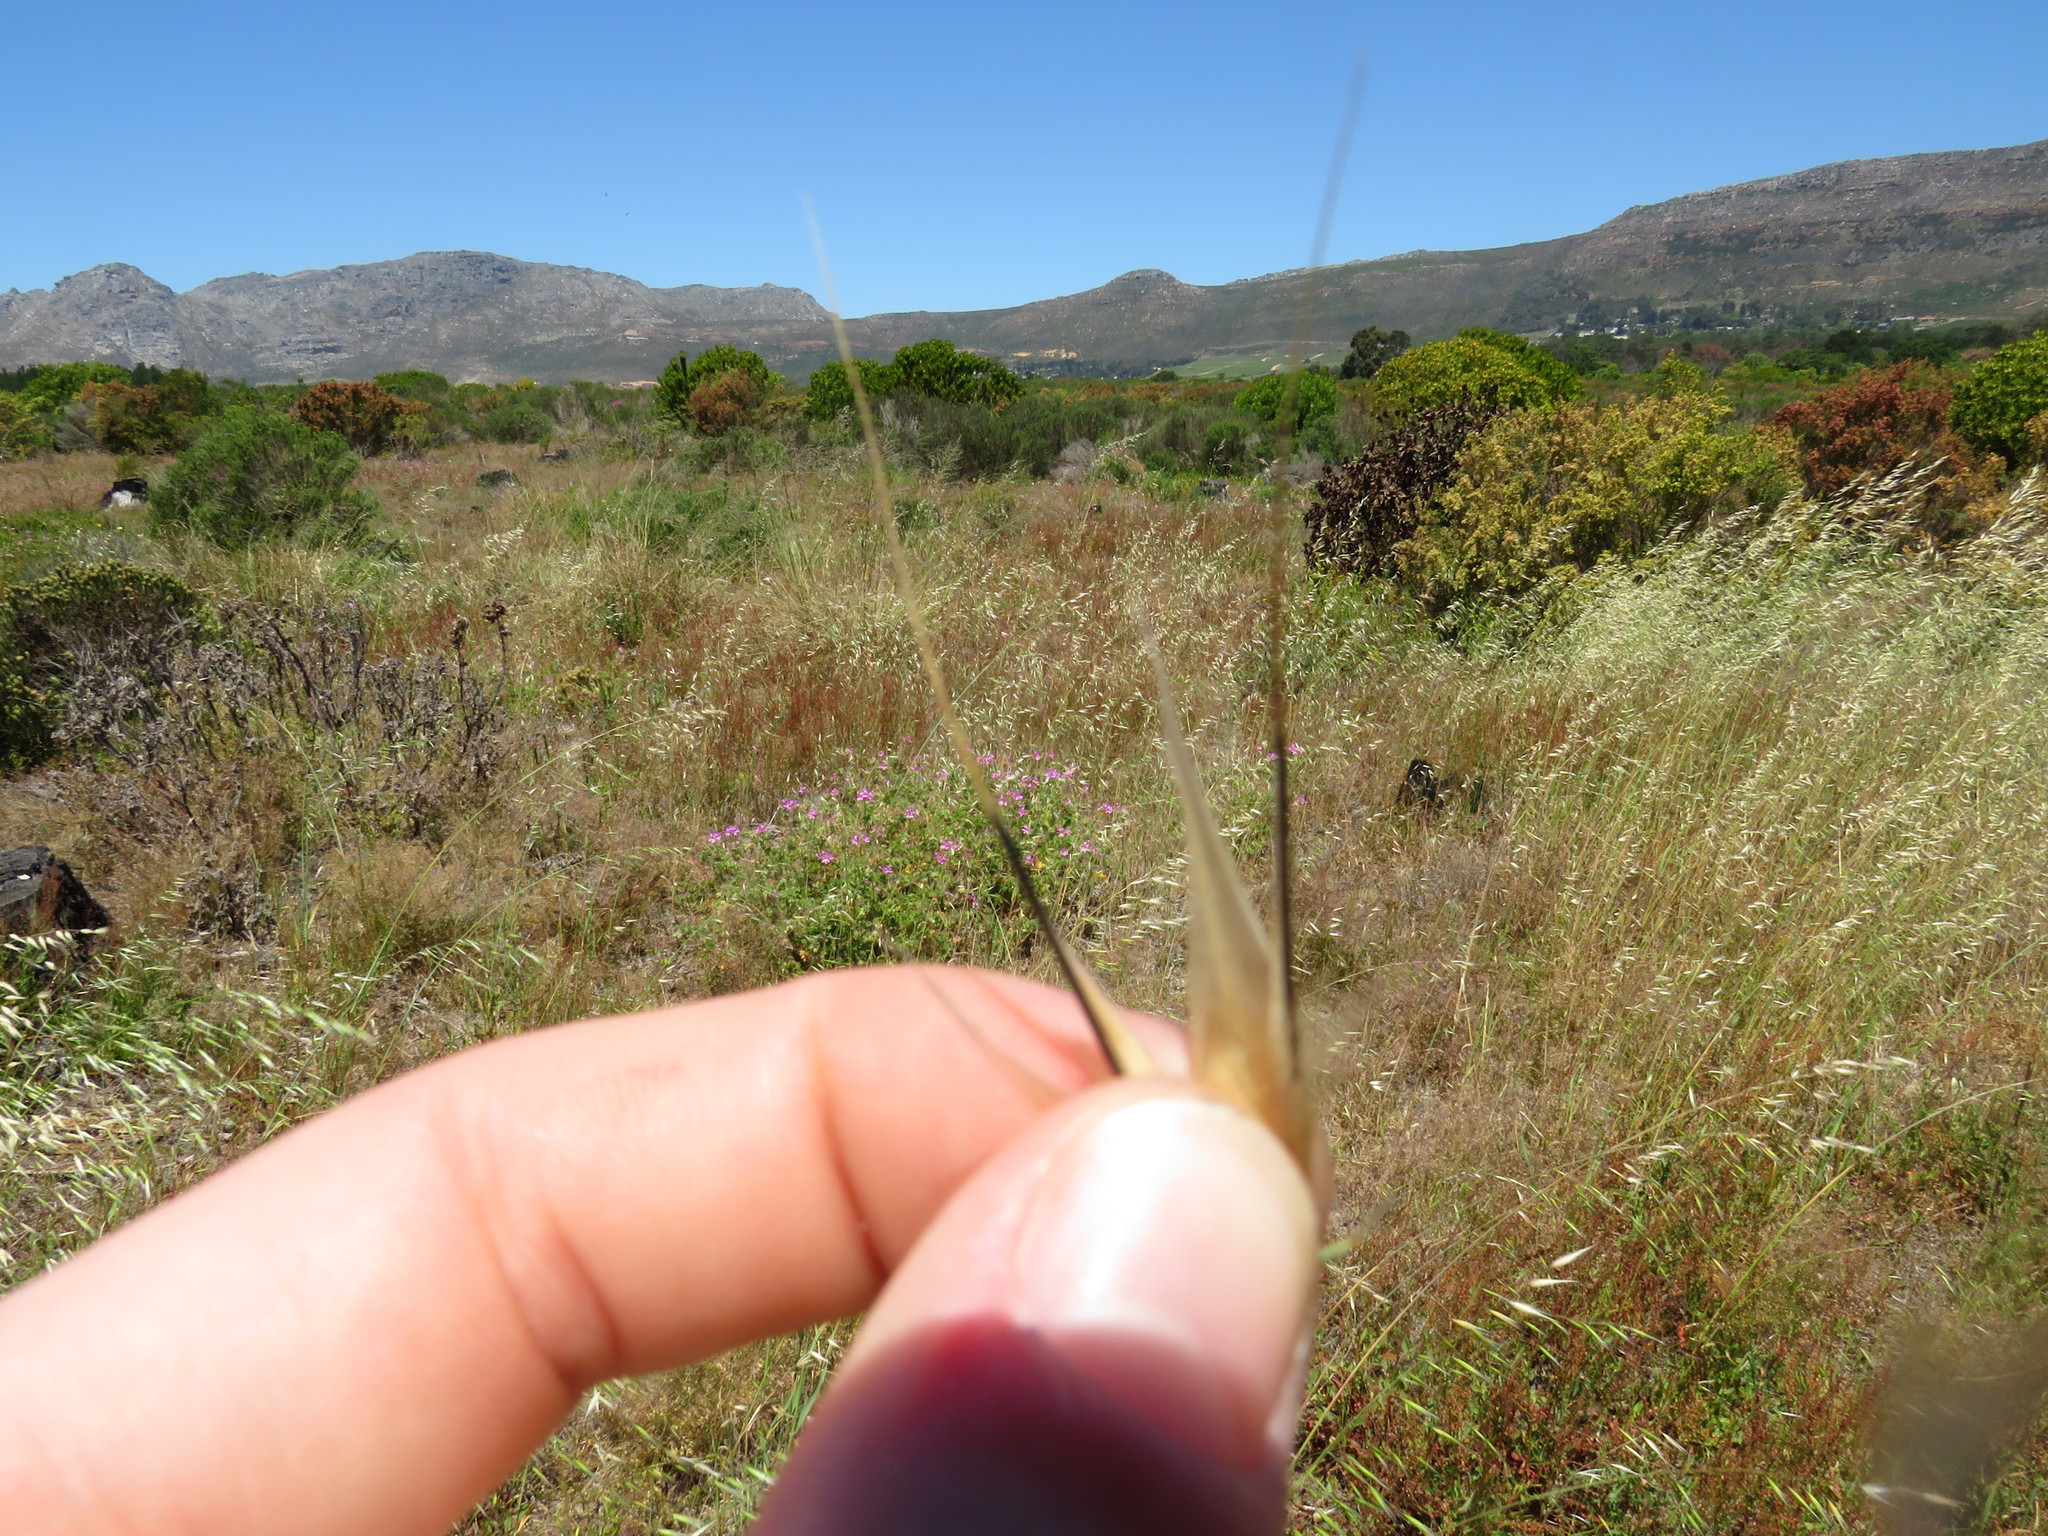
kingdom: Plantae
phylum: Tracheophyta
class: Liliopsida
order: Poales
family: Poaceae
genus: Avena
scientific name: Avena fatua
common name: Wild oat
